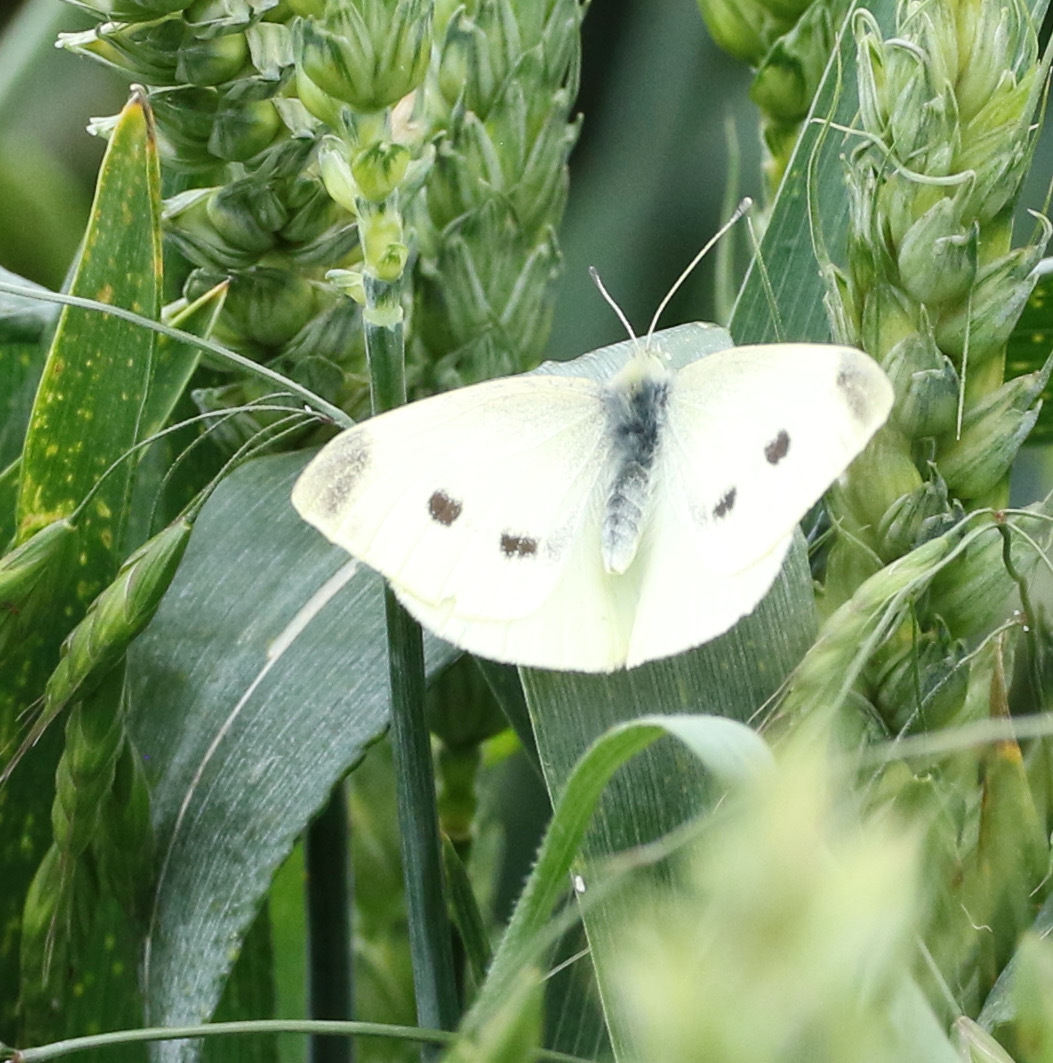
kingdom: Animalia
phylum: Arthropoda
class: Insecta
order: Lepidoptera
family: Pieridae
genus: Pieris
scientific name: Pieris rapae
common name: Small white
